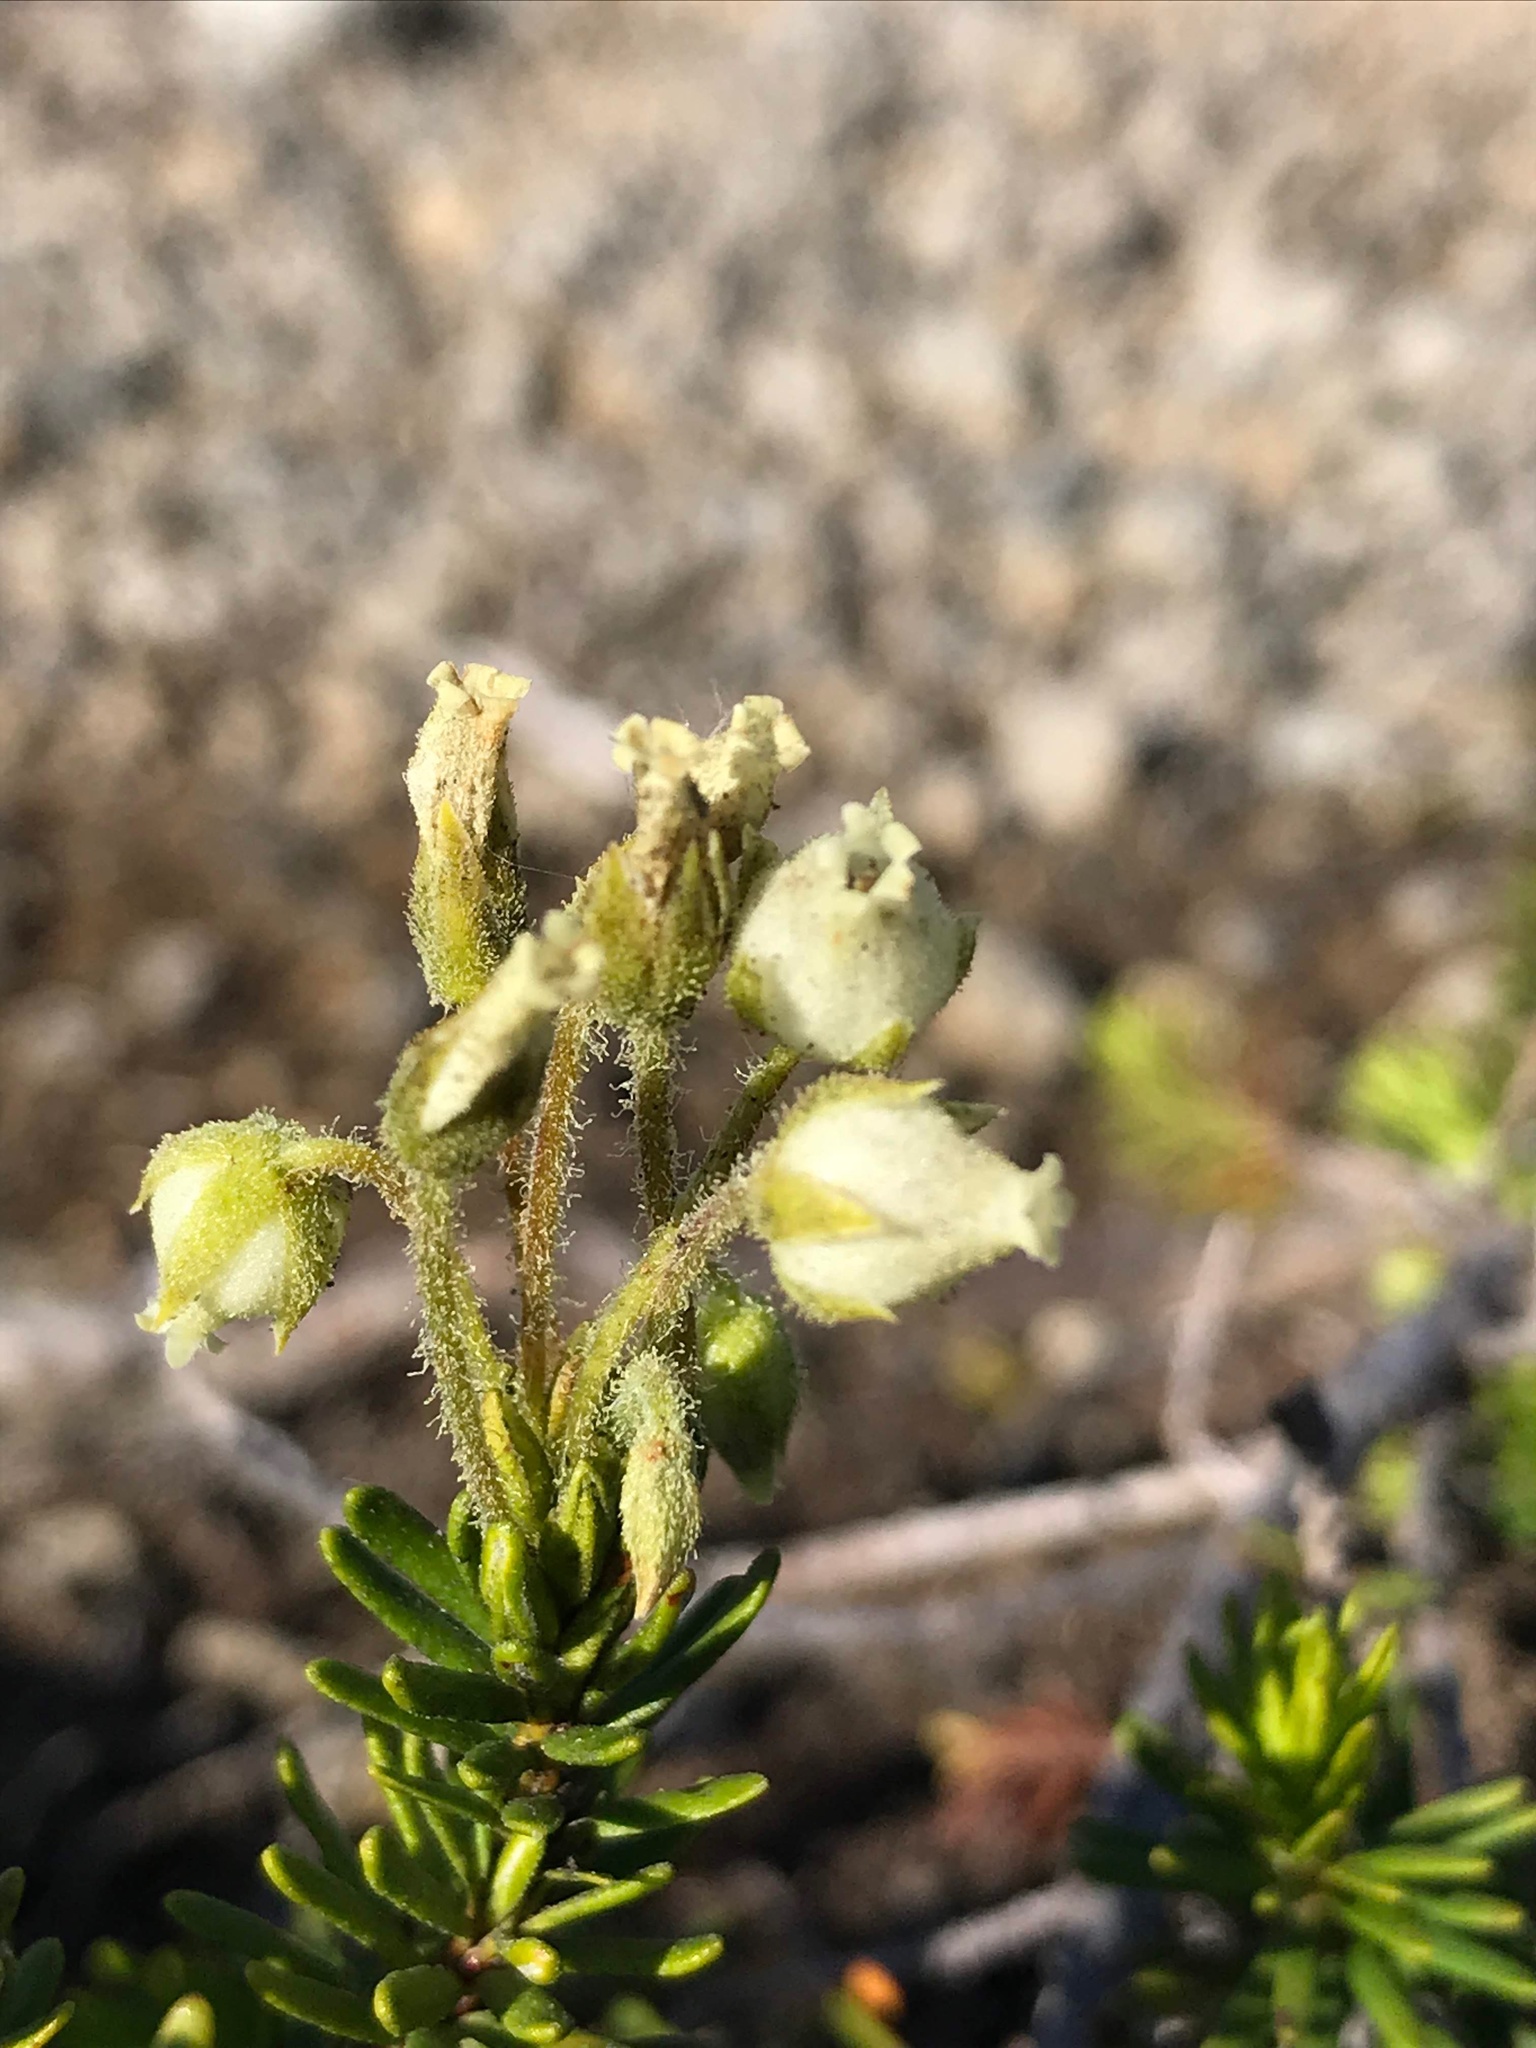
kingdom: Plantae
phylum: Tracheophyta
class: Magnoliopsida
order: Ericales
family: Ericaceae
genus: Phyllodoce
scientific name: Phyllodoce glanduliflora
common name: Cream mountain heather
